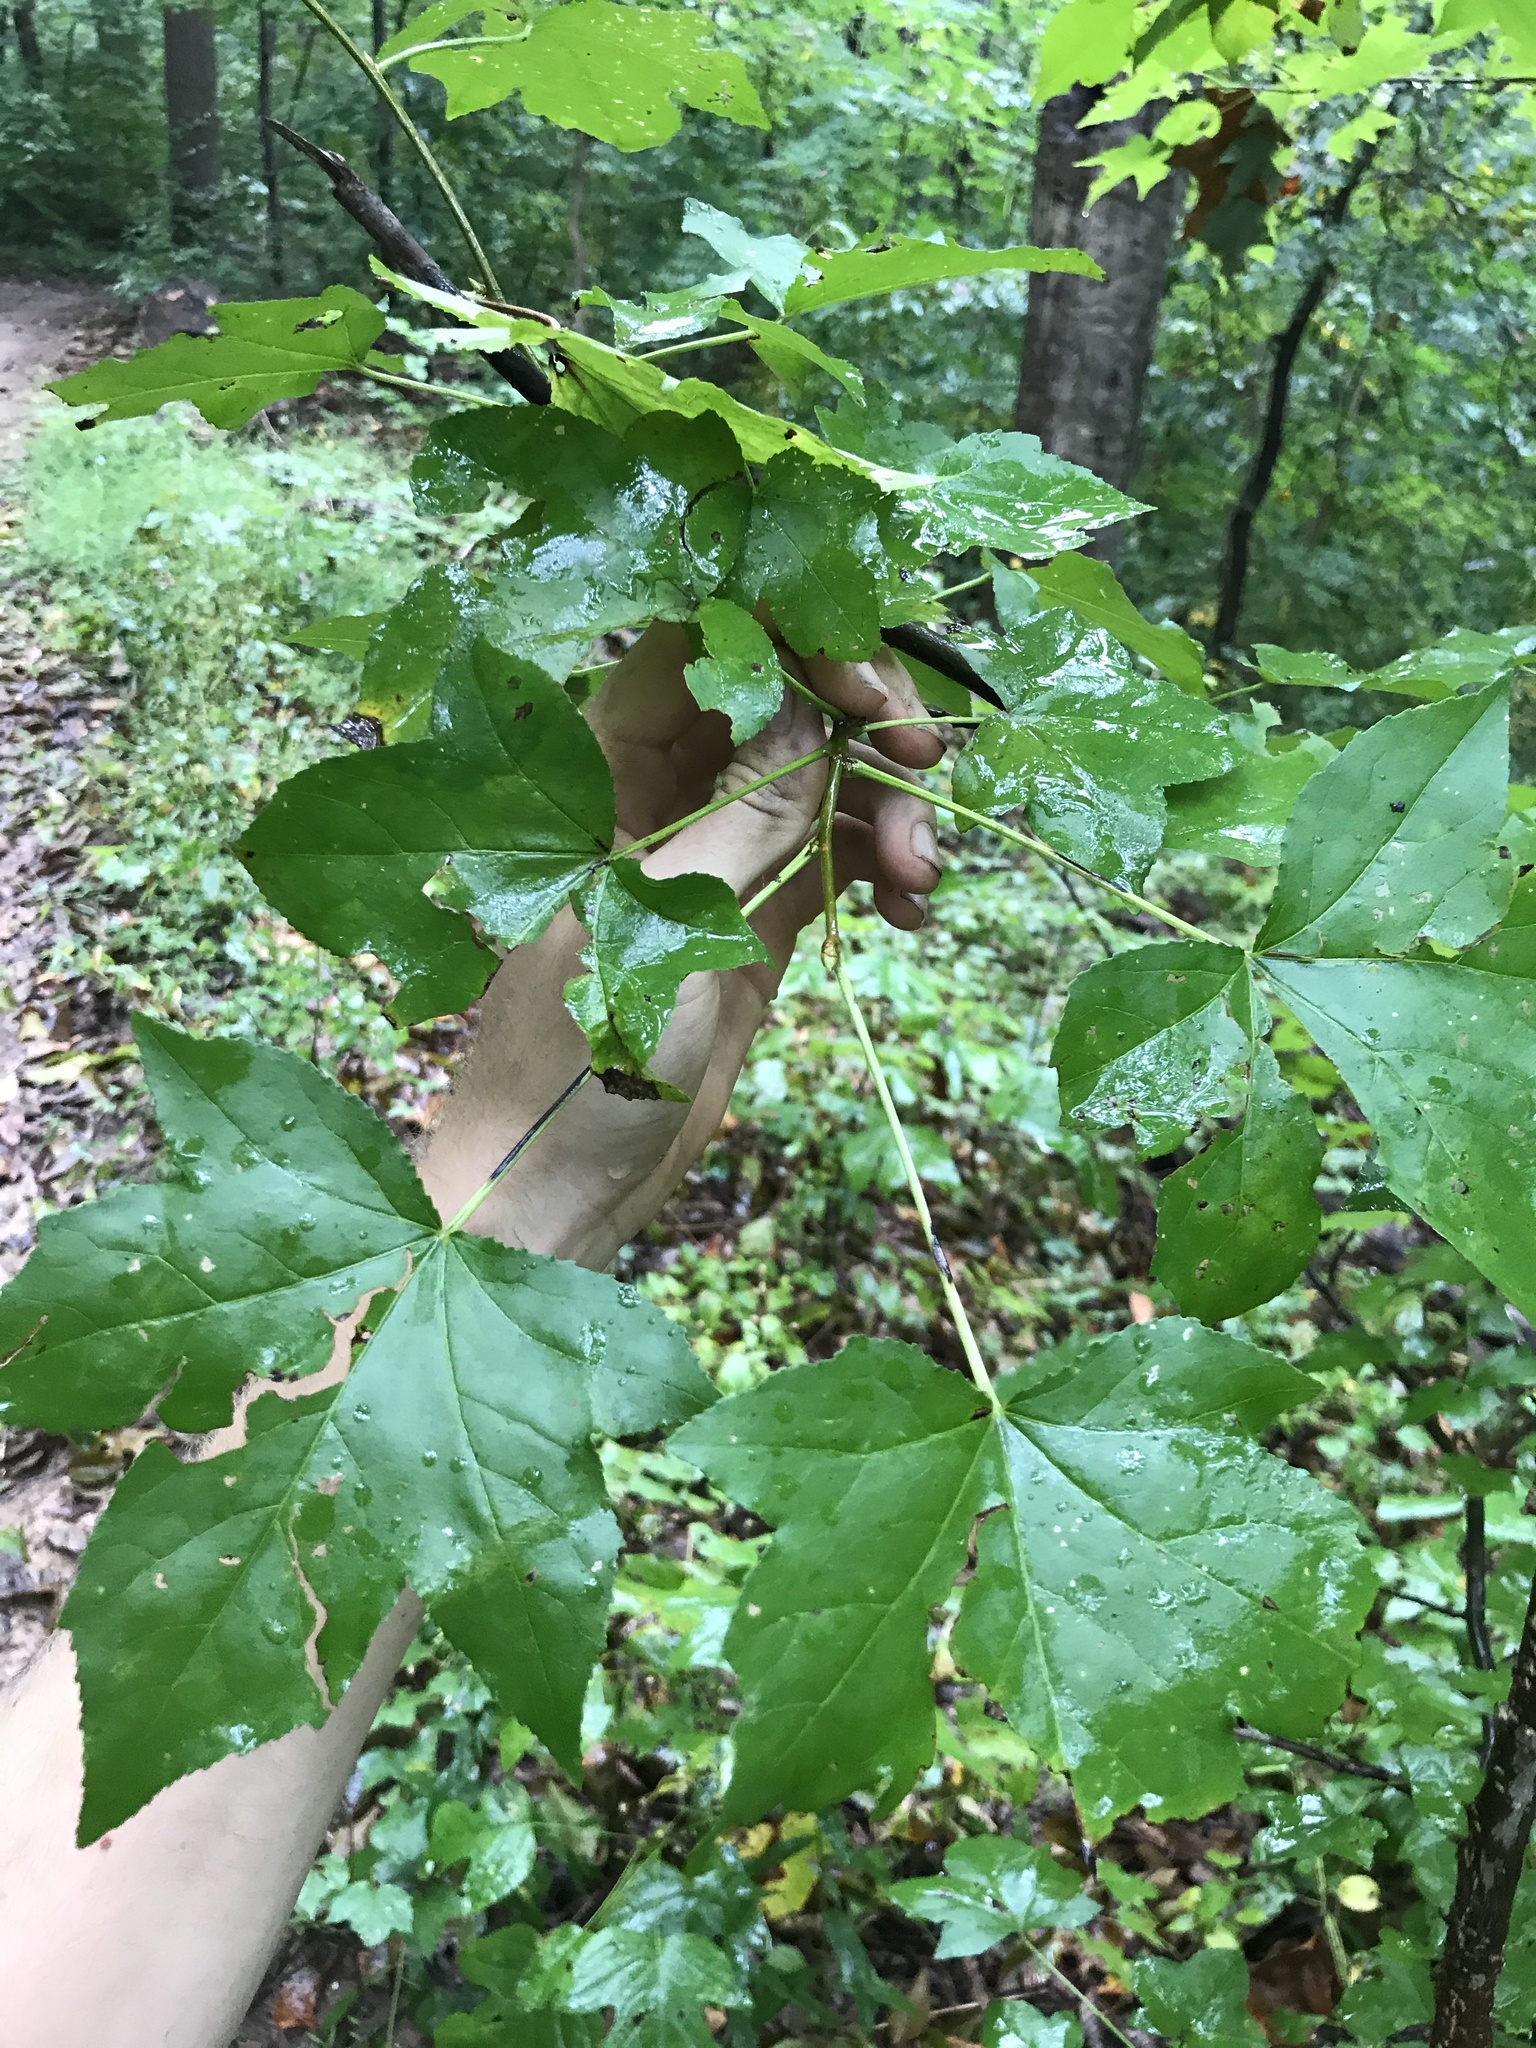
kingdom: Plantae
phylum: Tracheophyta
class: Magnoliopsida
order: Saxifragales
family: Altingiaceae
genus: Liquidambar
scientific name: Liquidambar styraciflua
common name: Sweet gum
